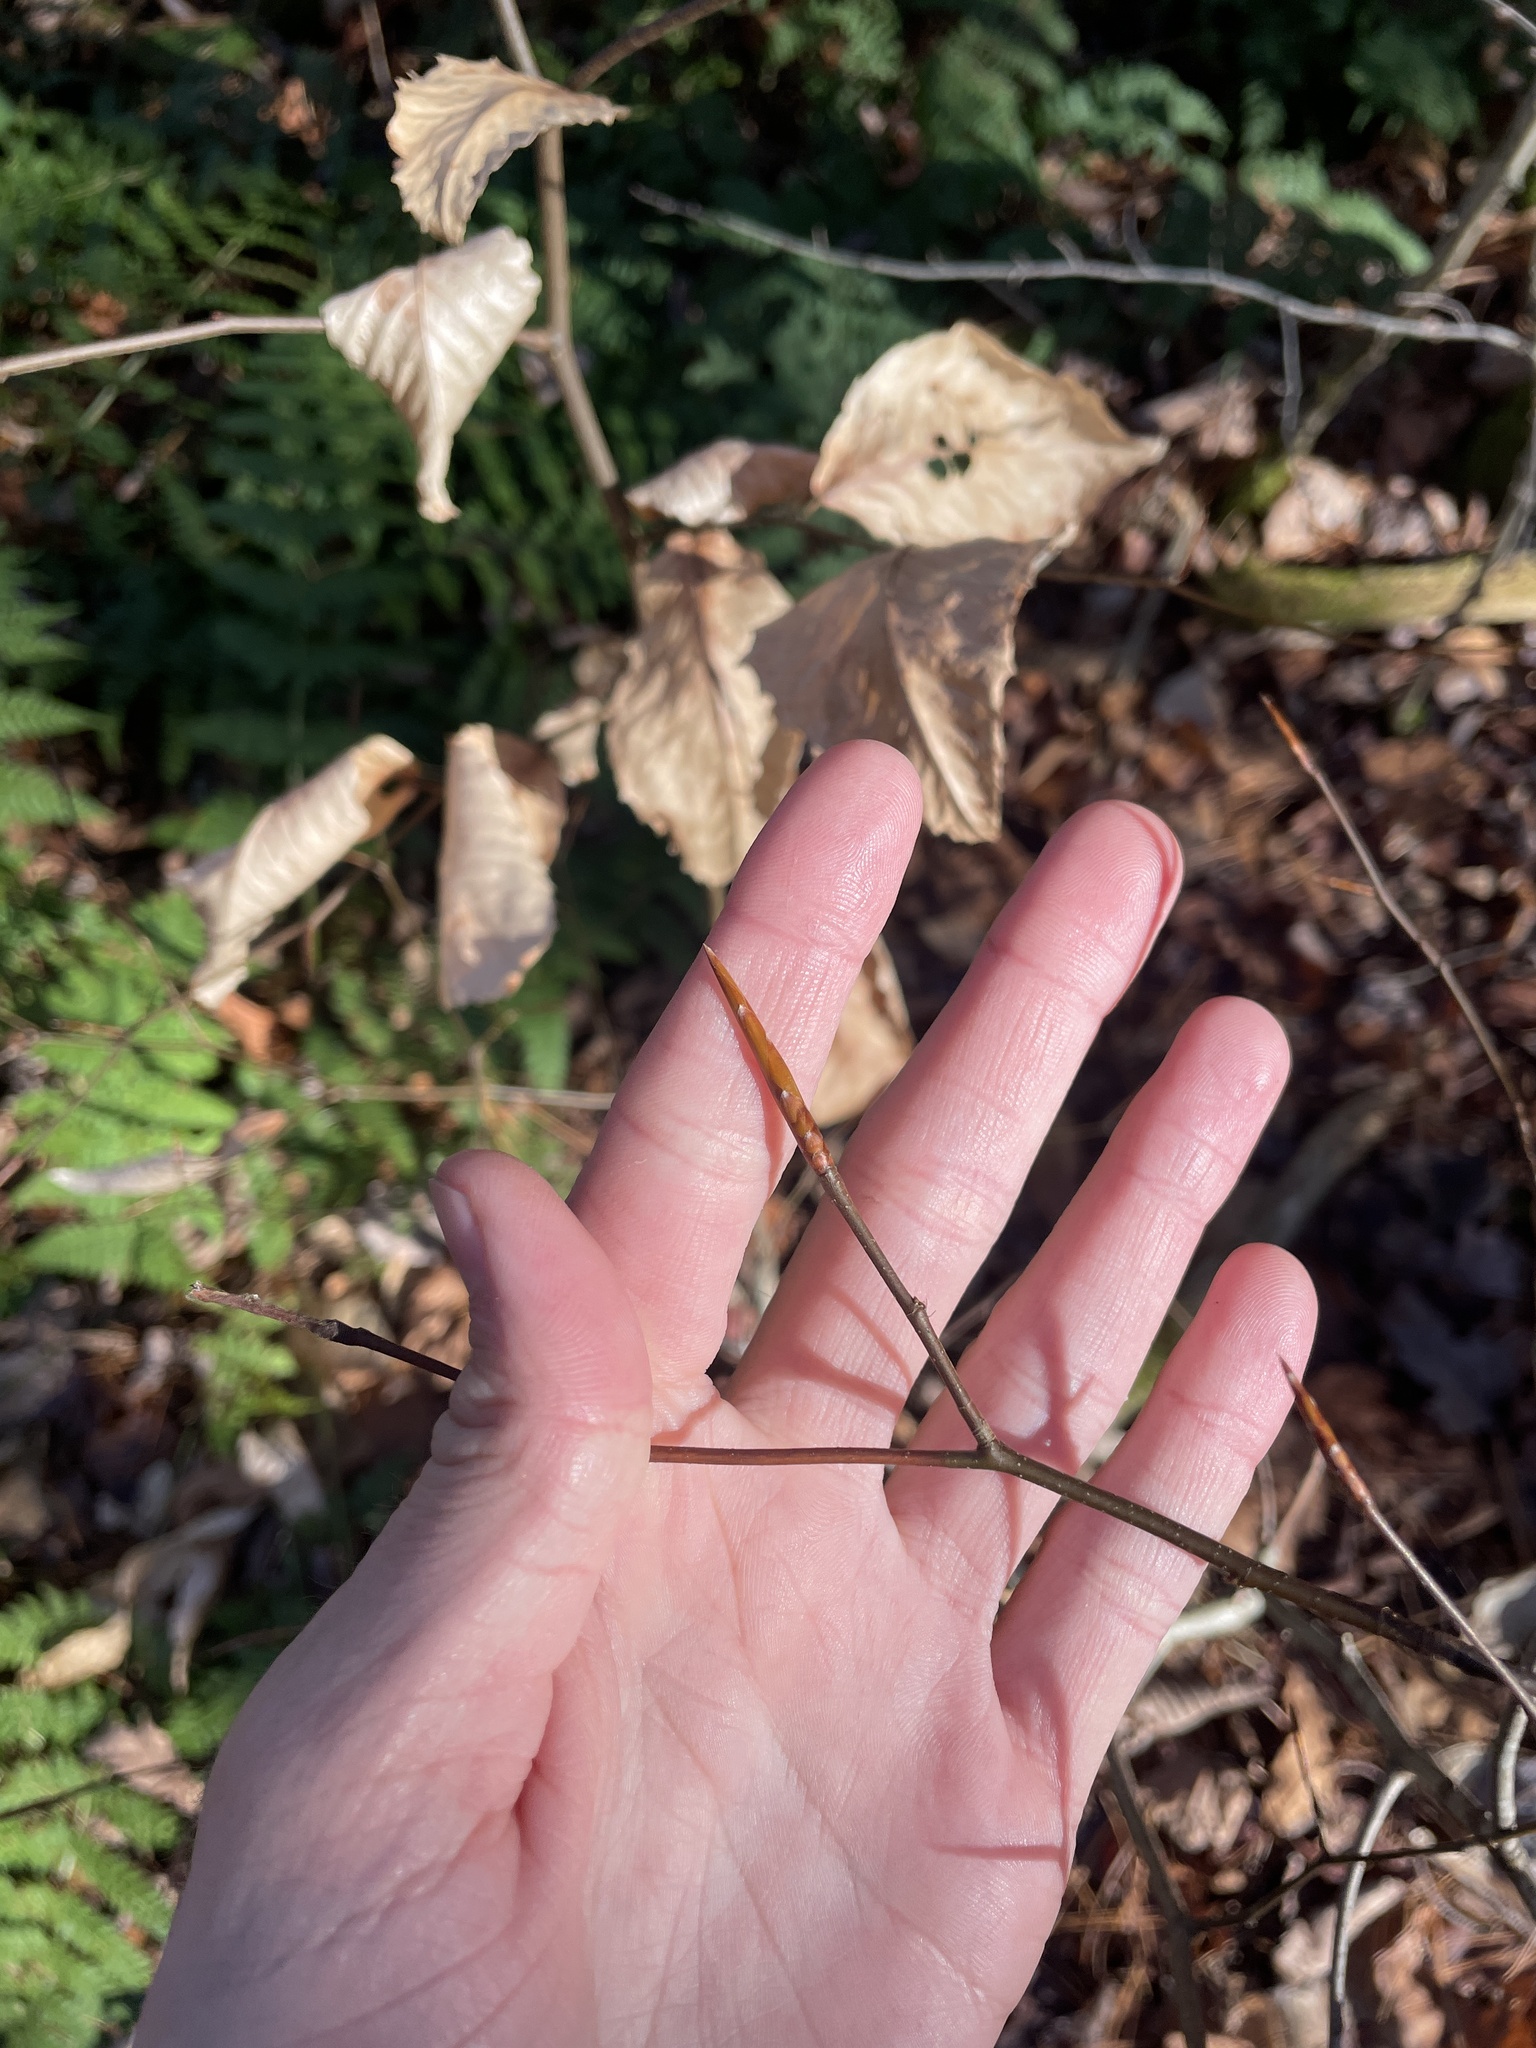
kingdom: Plantae
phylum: Tracheophyta
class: Magnoliopsida
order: Fagales
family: Fagaceae
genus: Fagus
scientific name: Fagus grandifolia
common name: American beech
